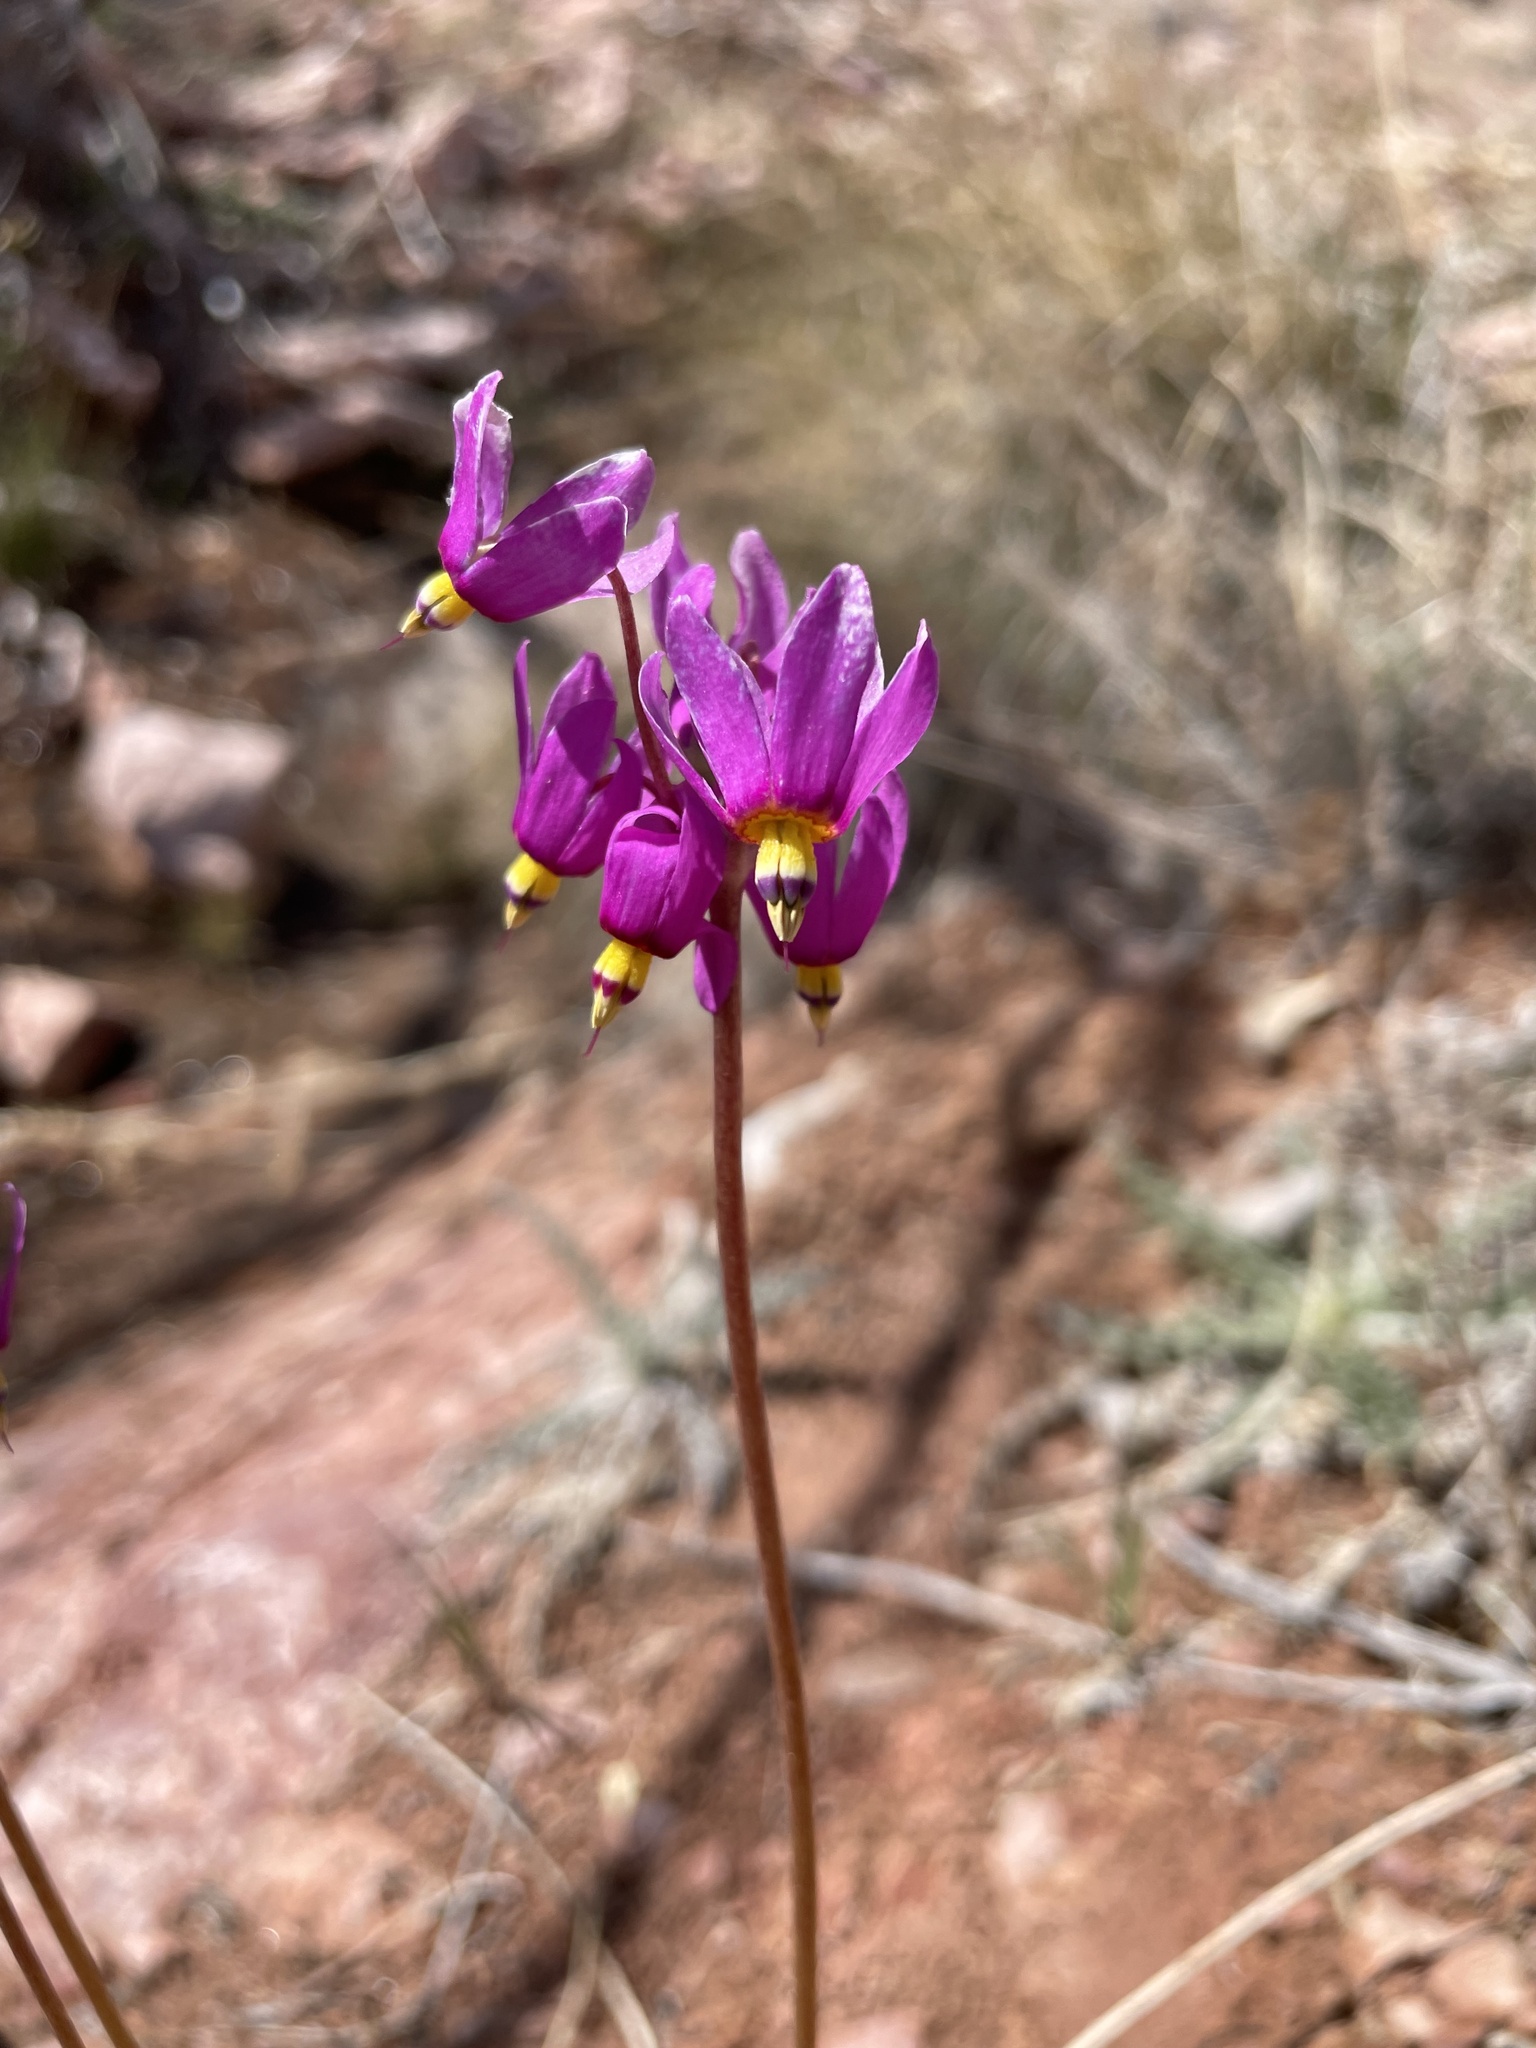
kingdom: Plantae
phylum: Tracheophyta
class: Magnoliopsida
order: Ericales
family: Primulaceae
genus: Dodecatheon
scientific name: Dodecatheon pulchellum
